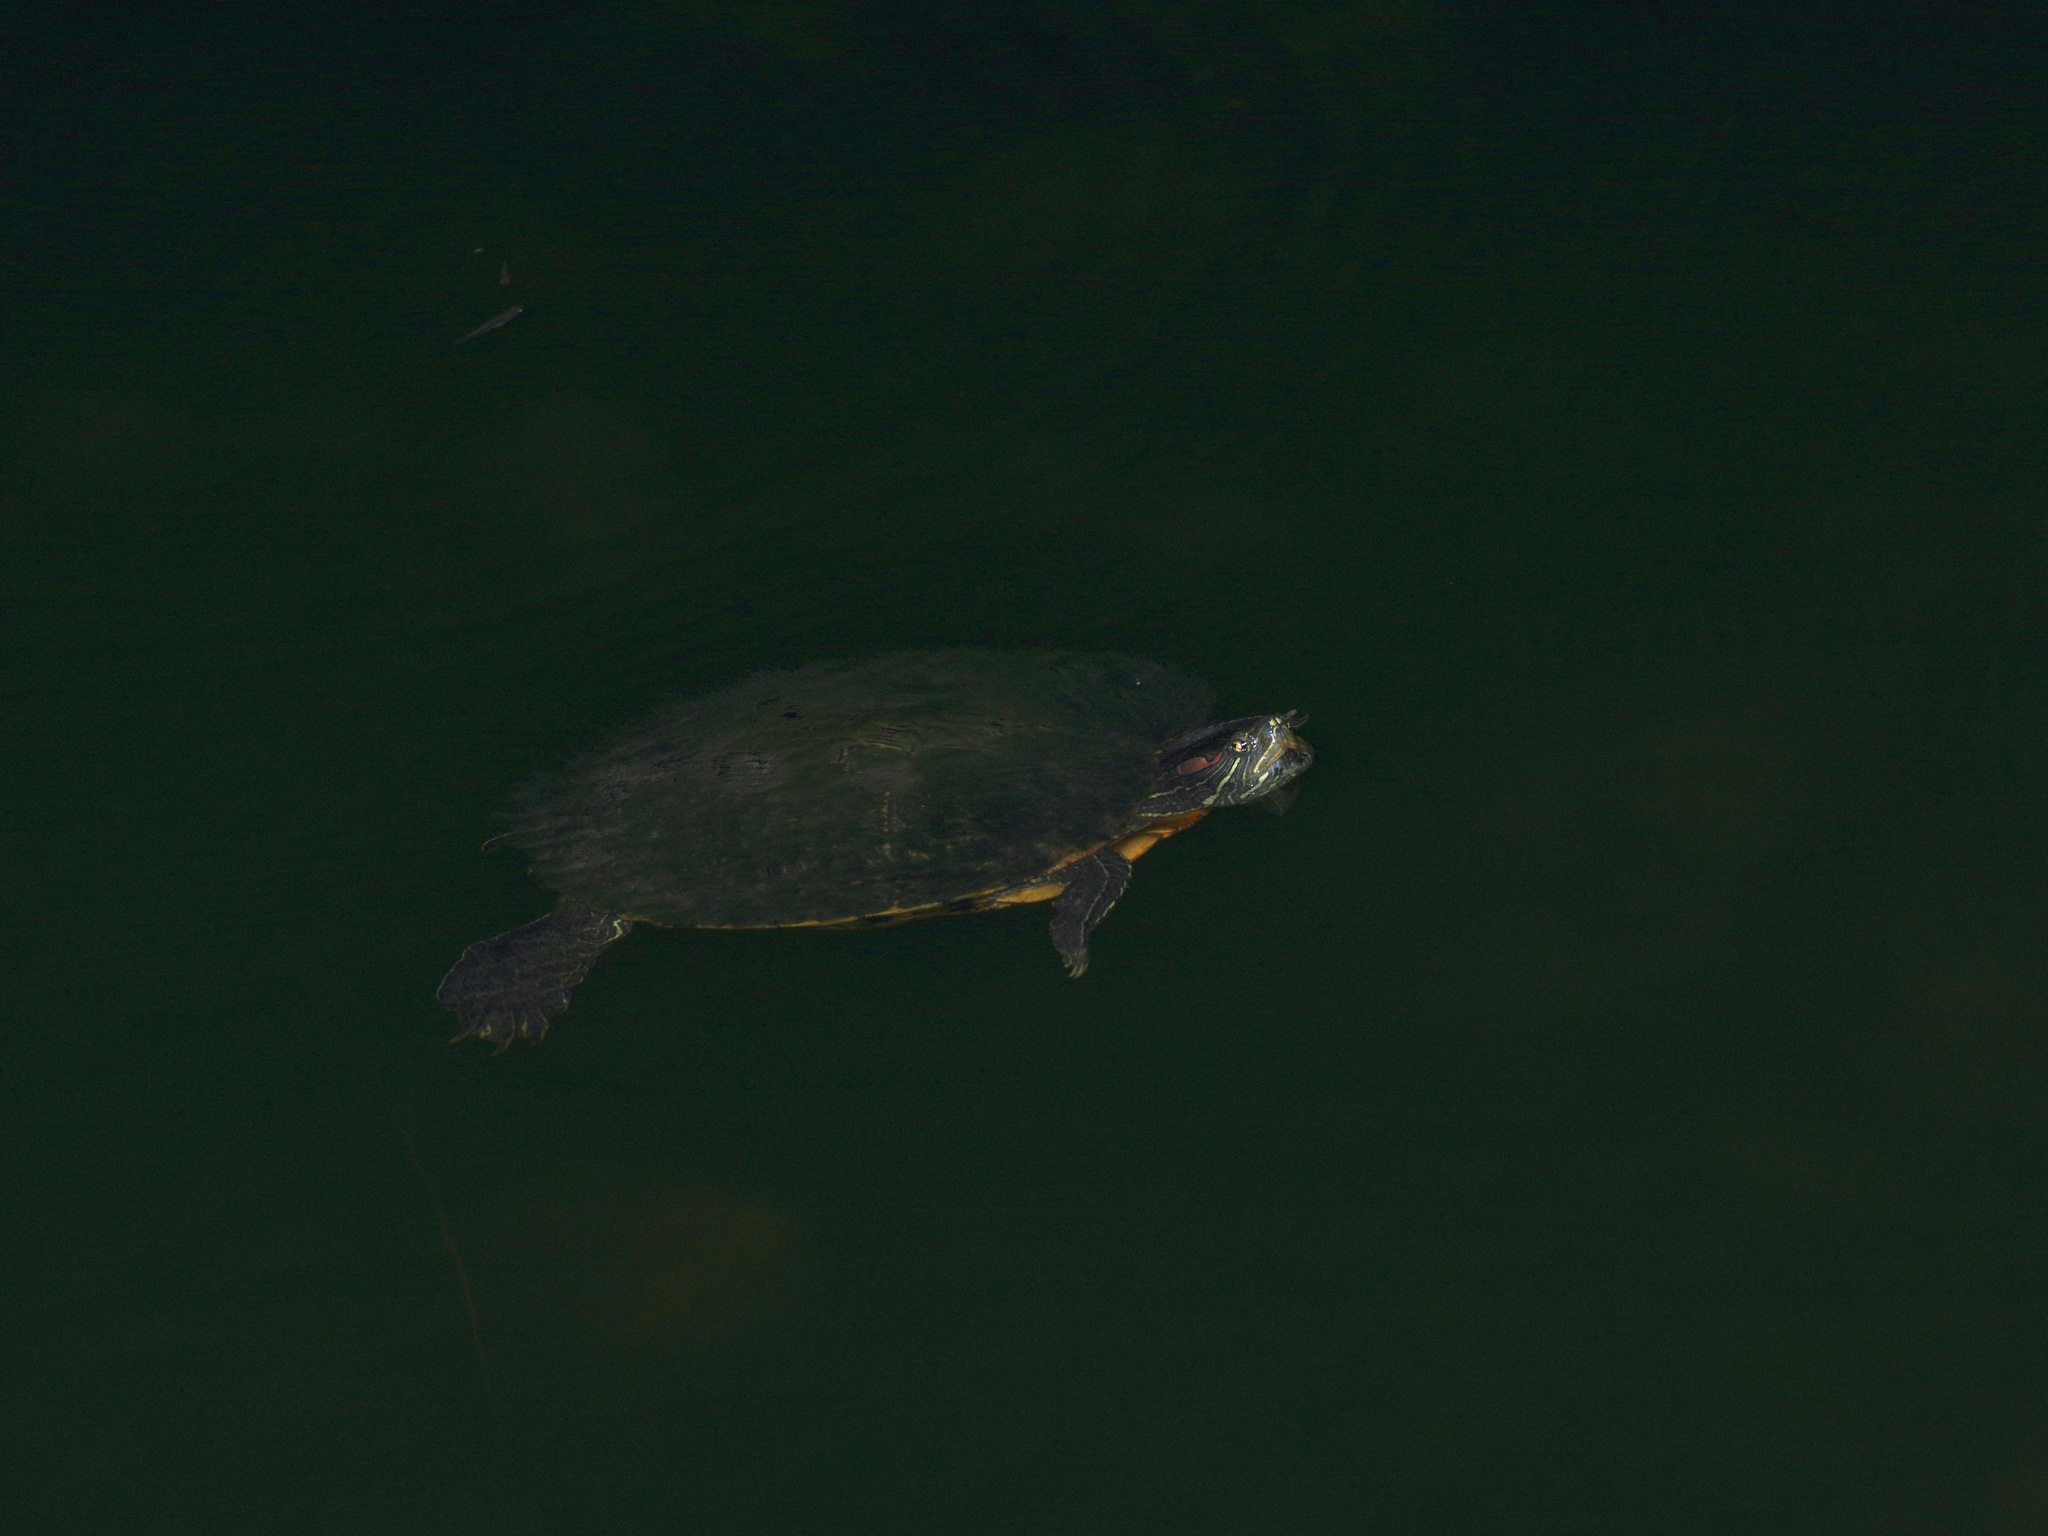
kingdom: Animalia
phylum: Chordata
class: Testudines
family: Emydidae
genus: Trachemys
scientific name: Trachemys scripta
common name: Slider
